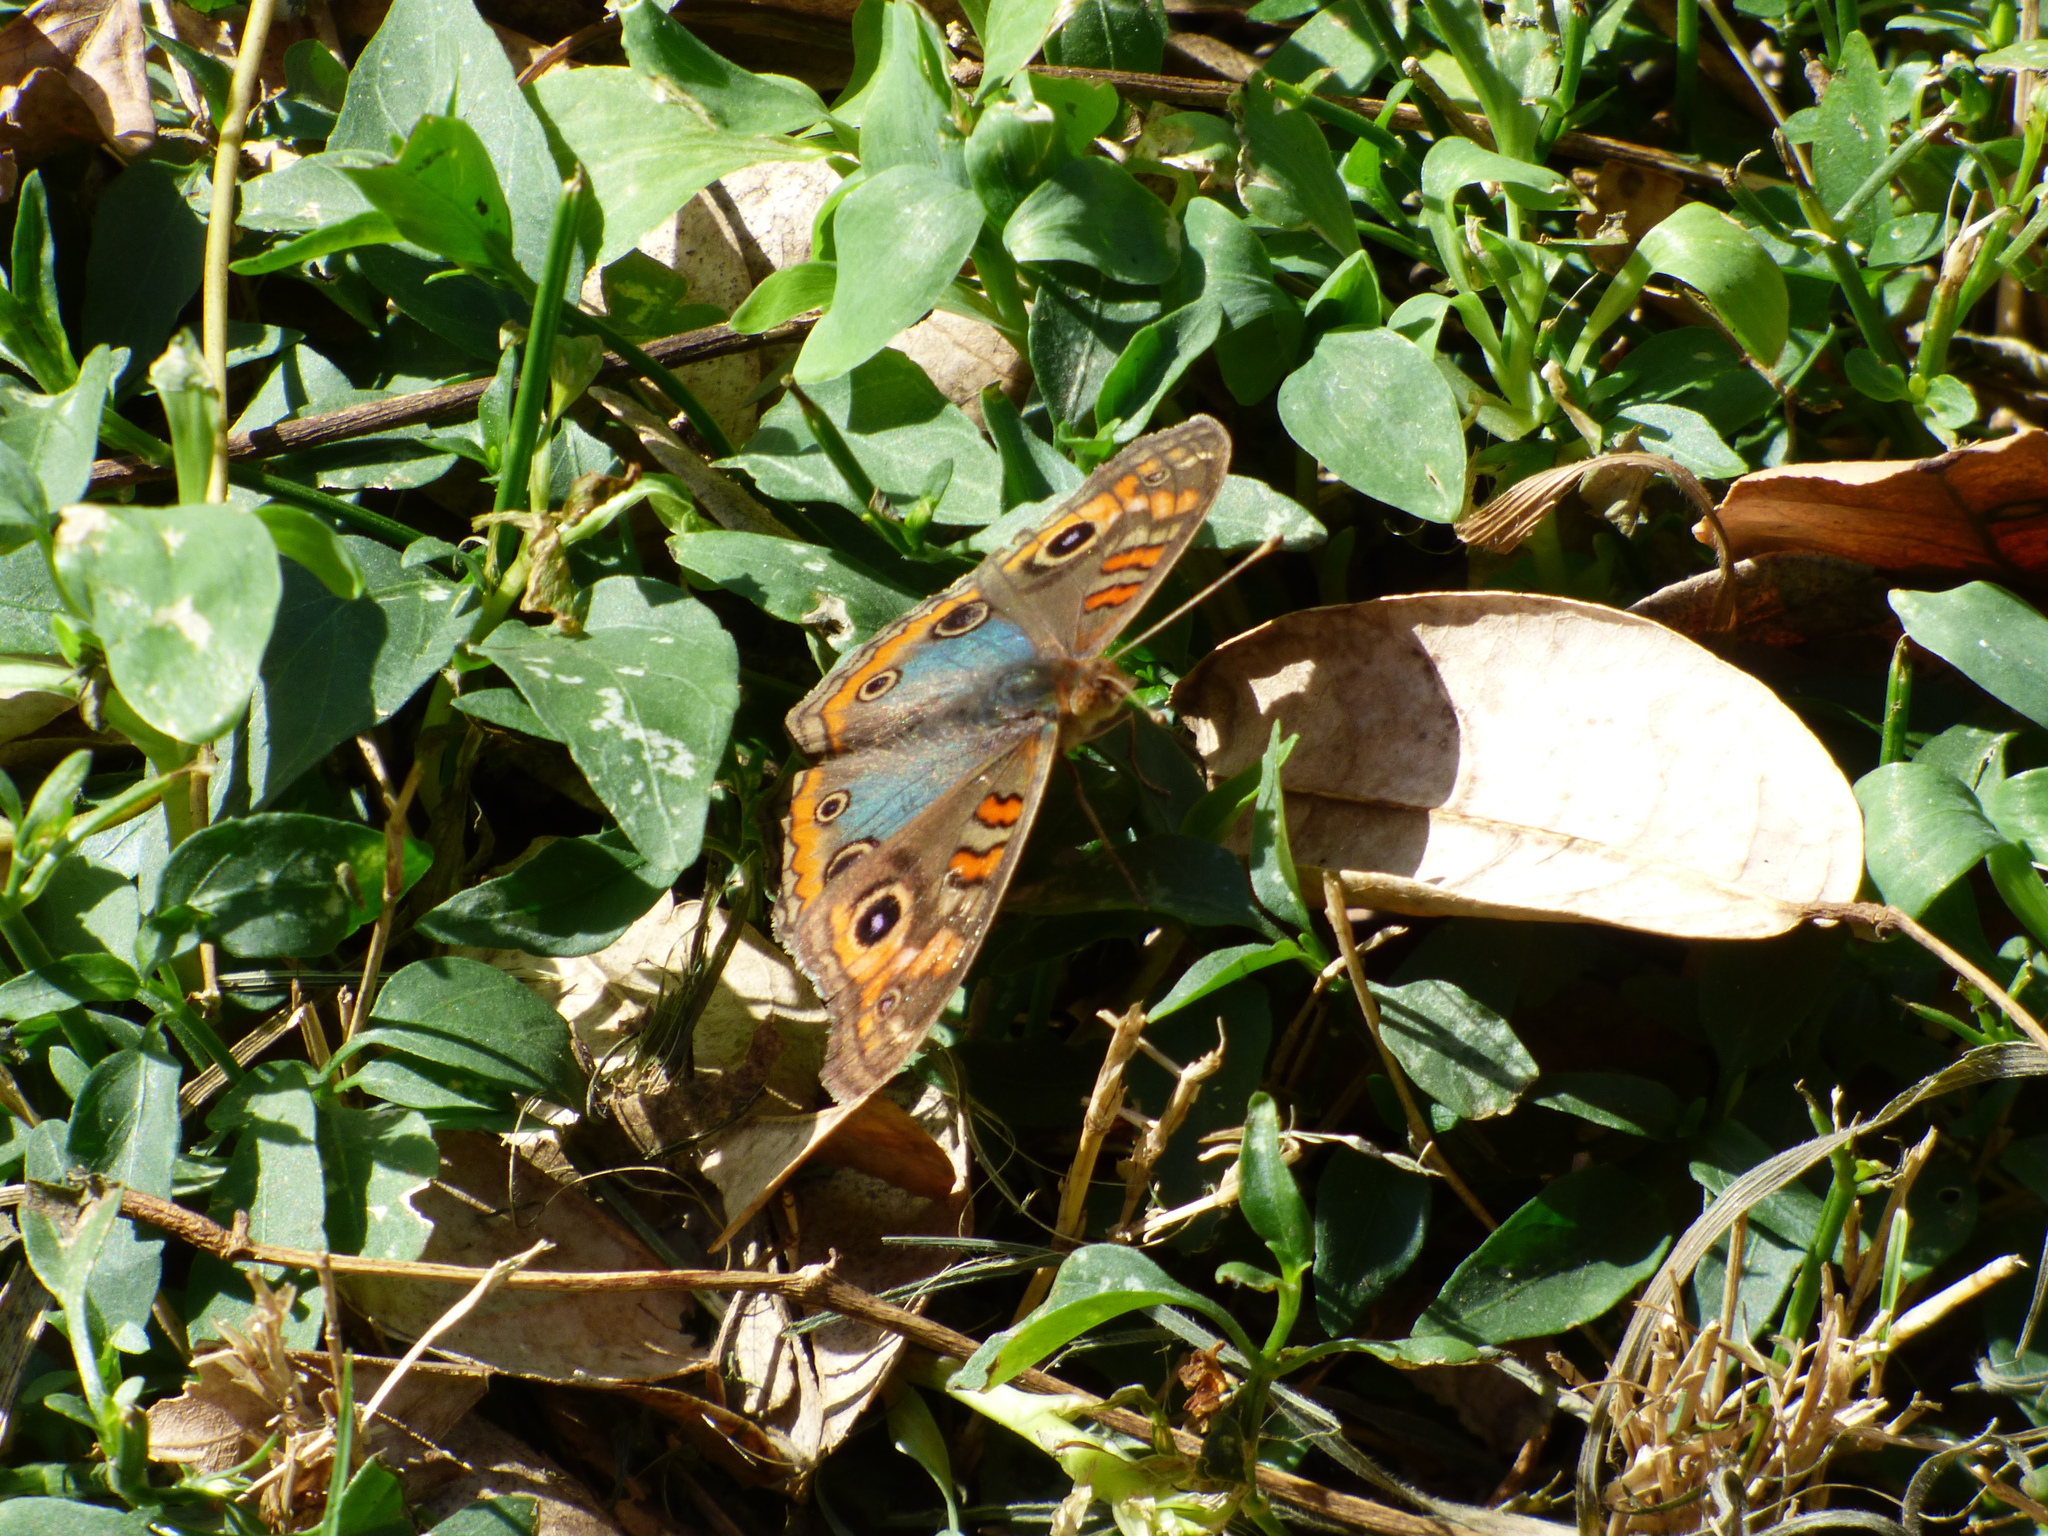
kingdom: Animalia
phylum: Arthropoda
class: Insecta
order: Lepidoptera
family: Nymphalidae
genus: Junonia
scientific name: Junonia lavinia
